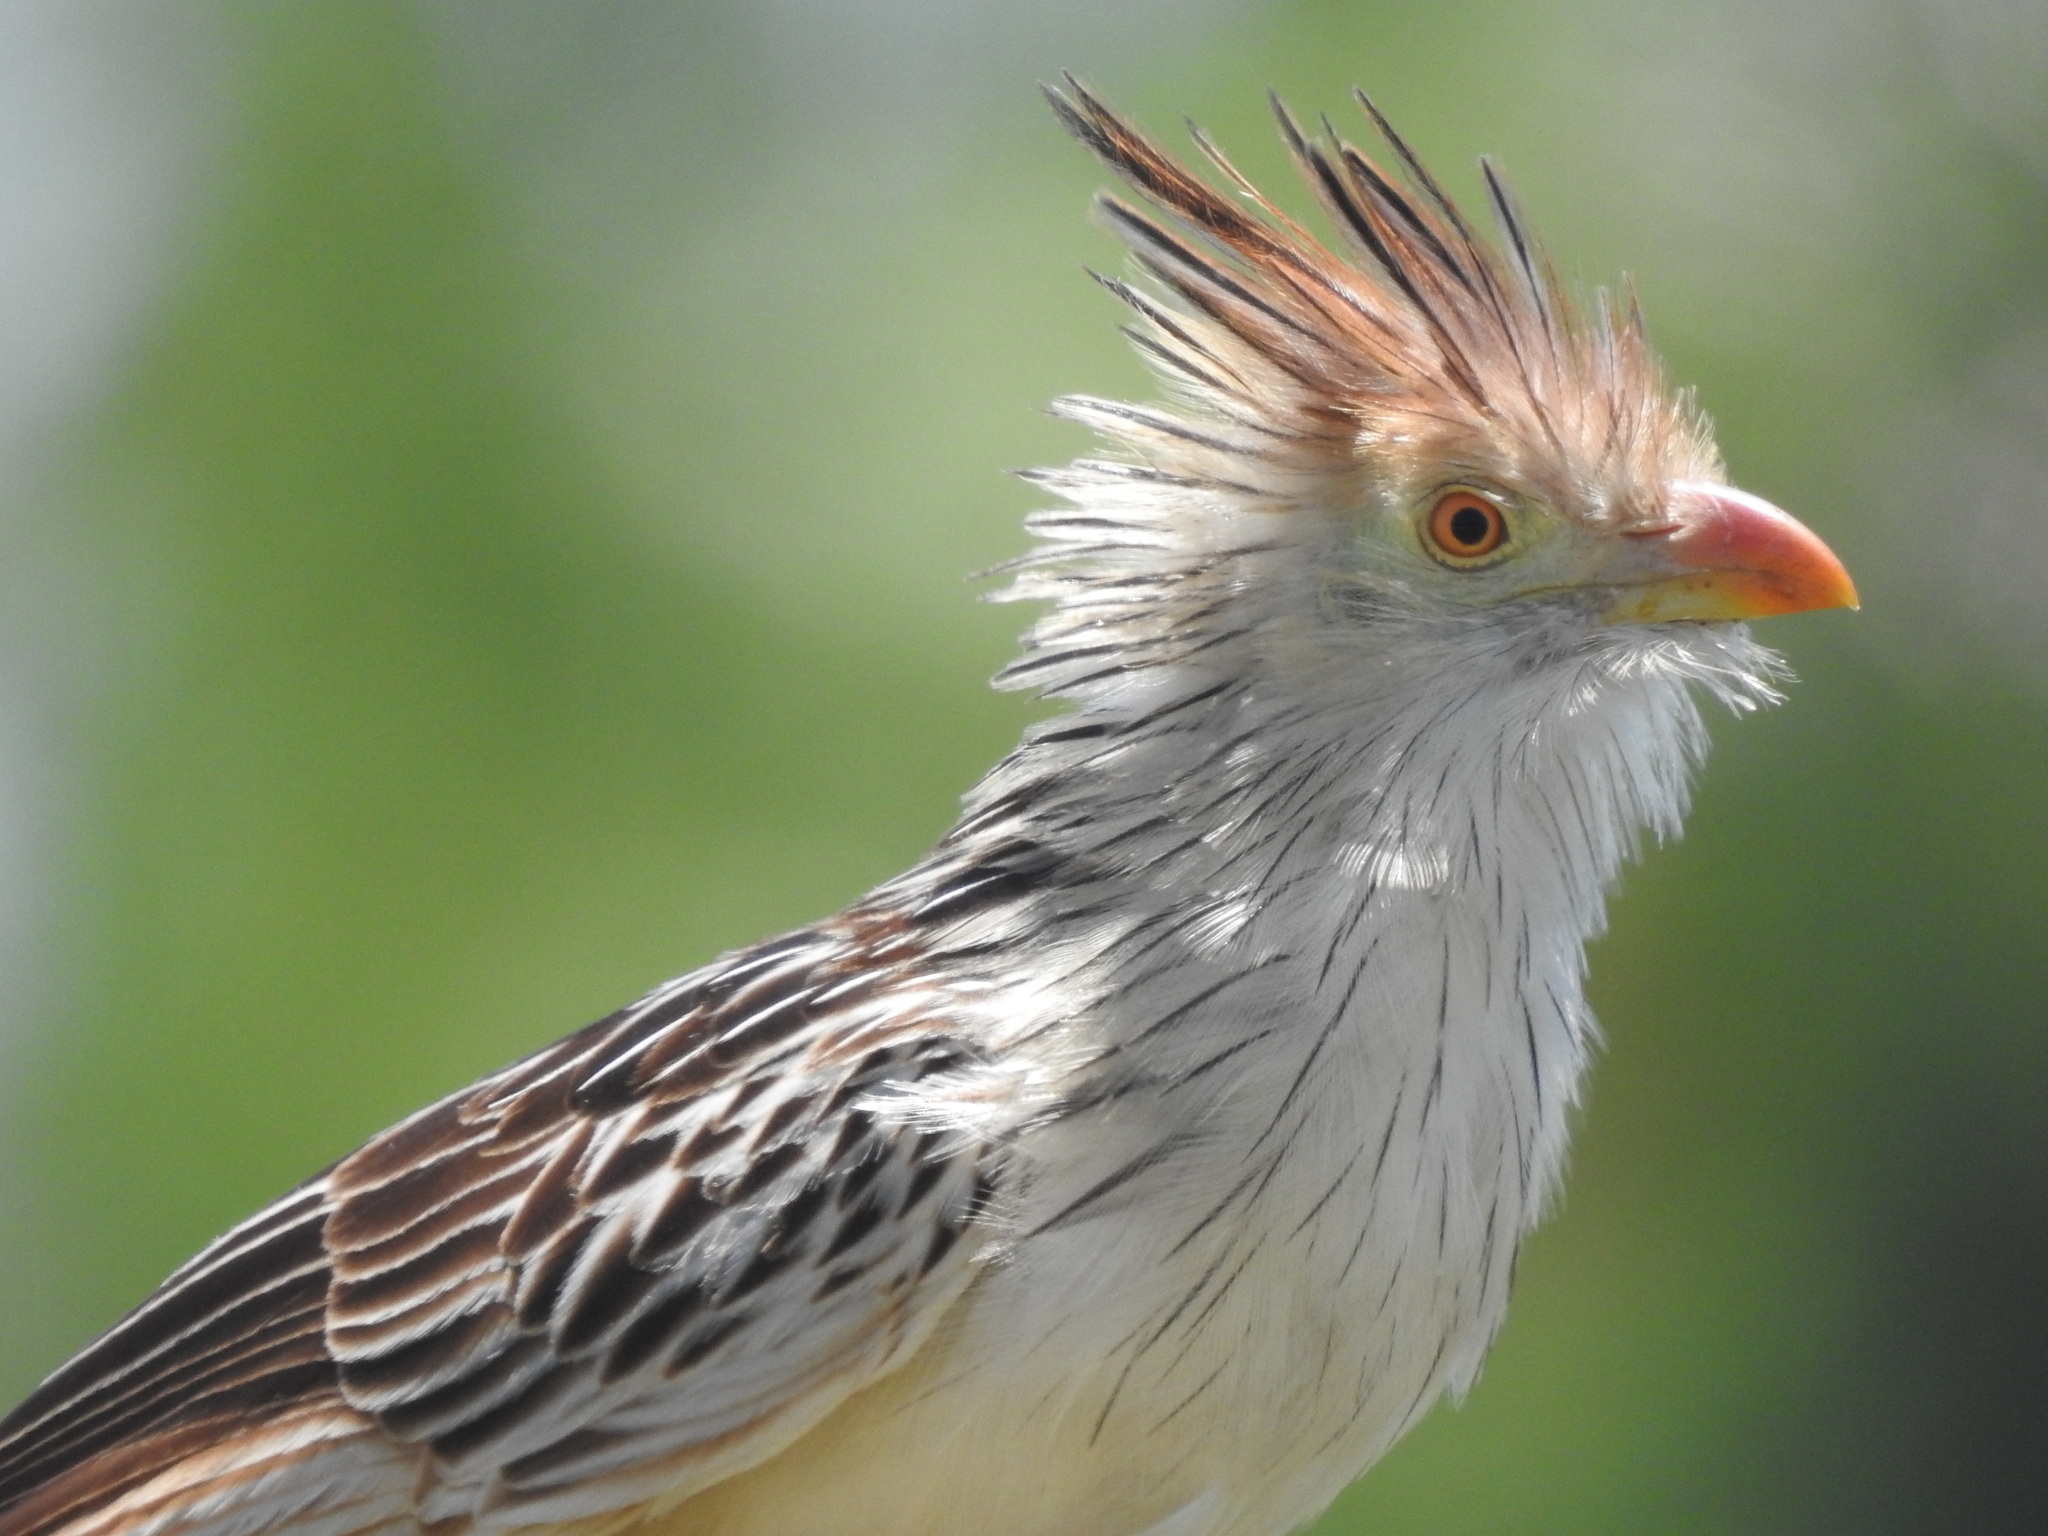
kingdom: Animalia
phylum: Chordata
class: Aves
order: Cuculiformes
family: Cuculidae
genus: Guira
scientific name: Guira guira
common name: Guira cuckoo
